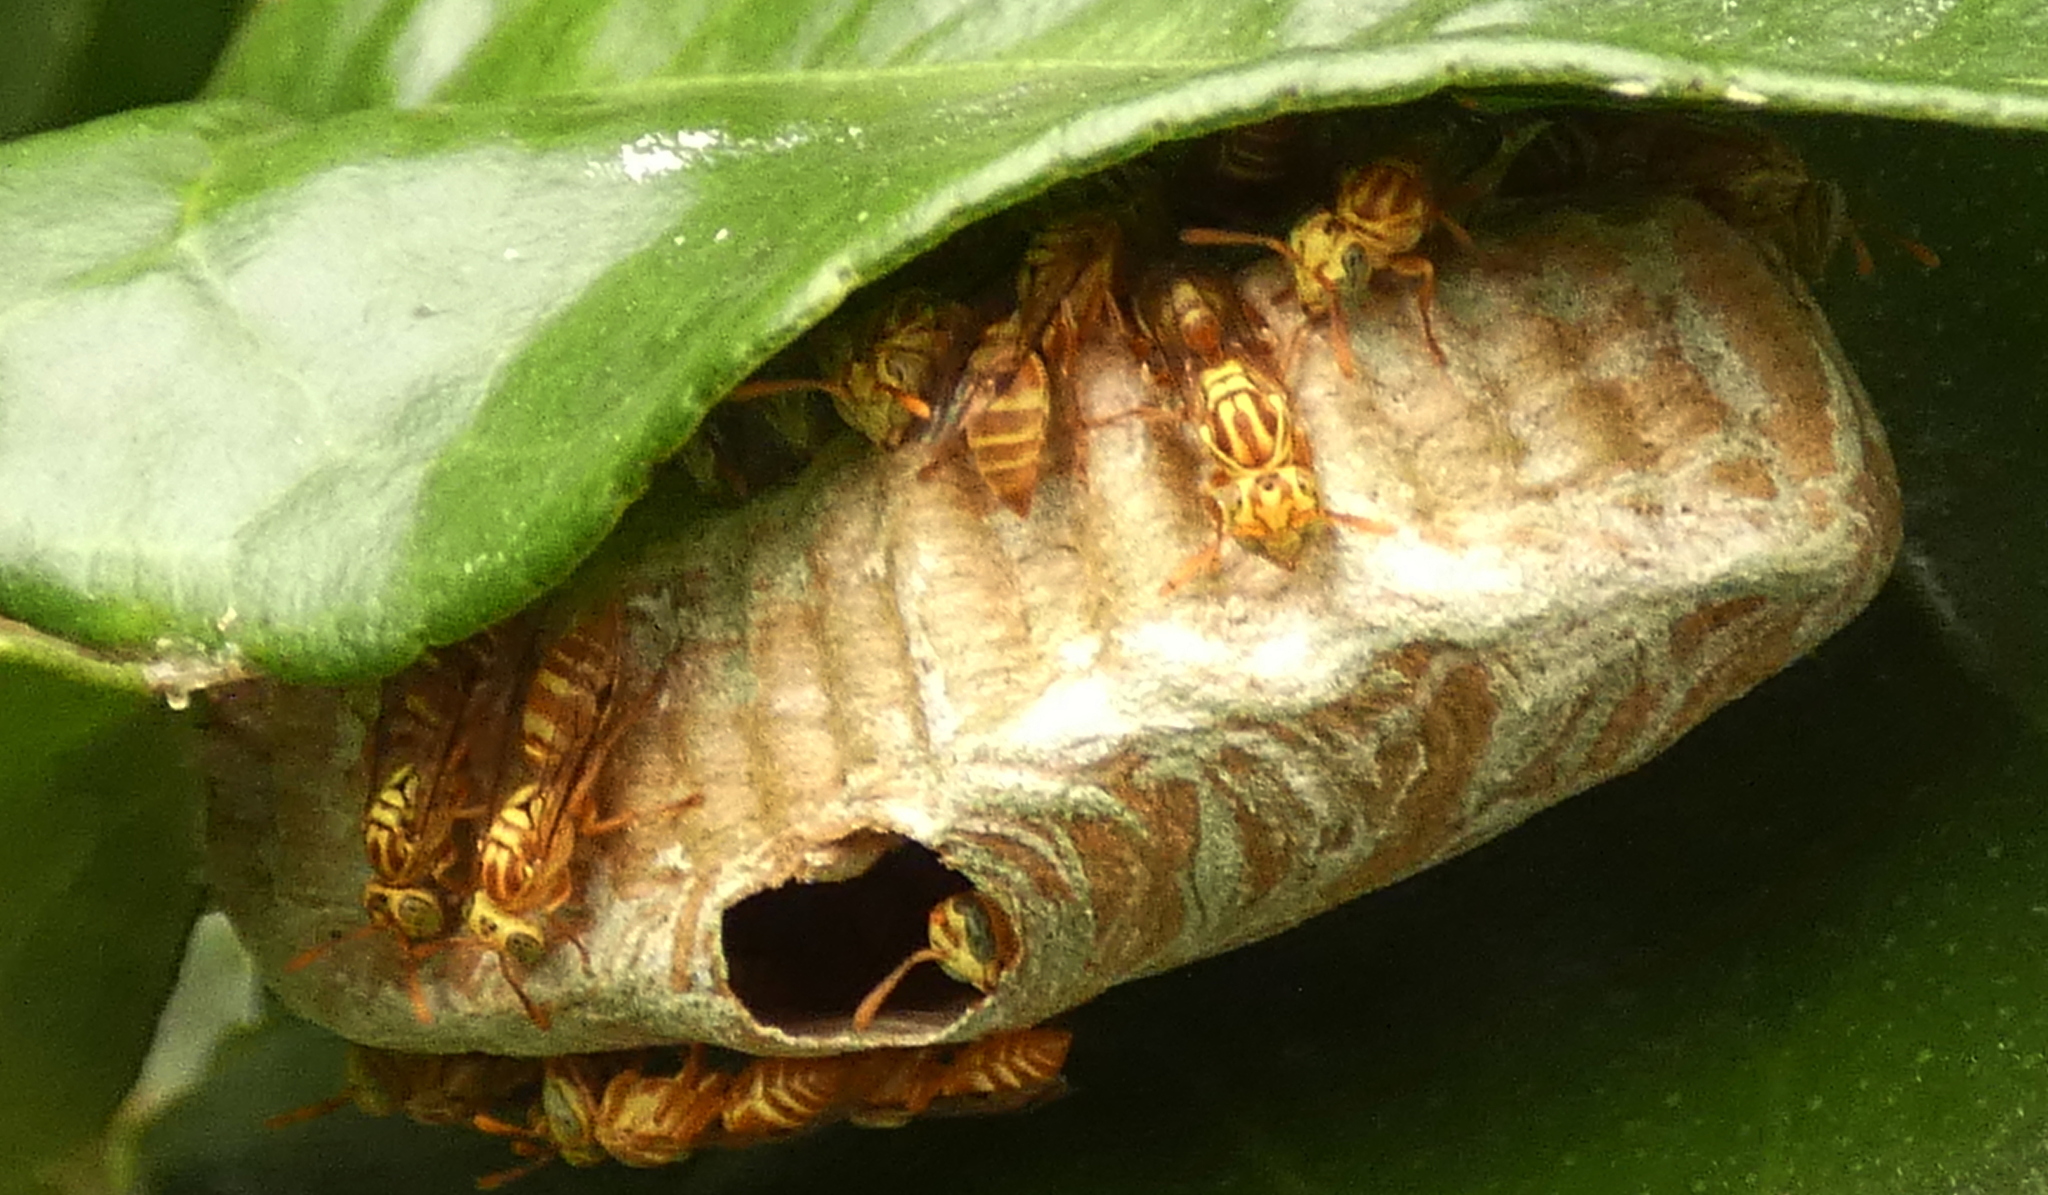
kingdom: Animalia
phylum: Arthropoda
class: Insecta
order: Hymenoptera
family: Vespidae
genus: Protopolybia
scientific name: Protopolybia potiguara
